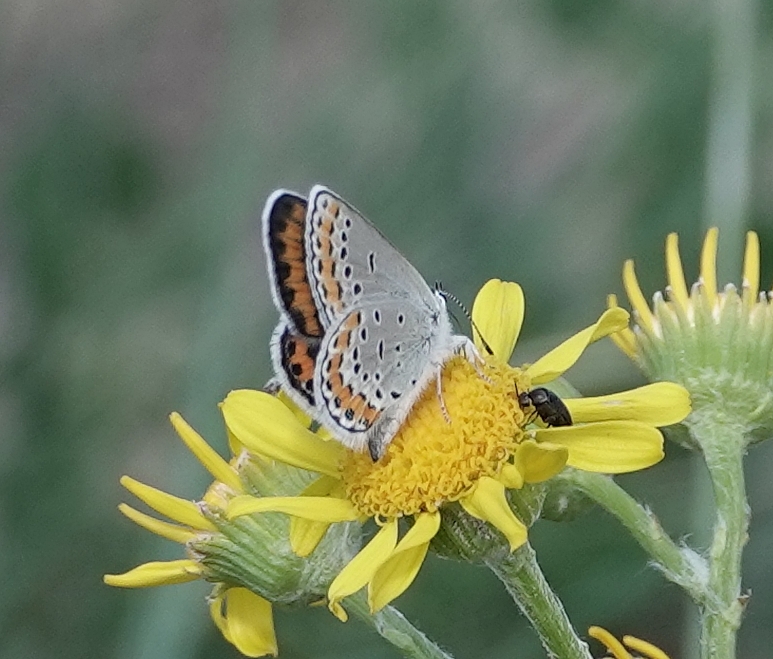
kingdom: Animalia
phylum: Arthropoda
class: Insecta
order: Lepidoptera
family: Lycaenidae
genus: Lycaeides
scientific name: Lycaeides melissa
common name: Melissa blue
